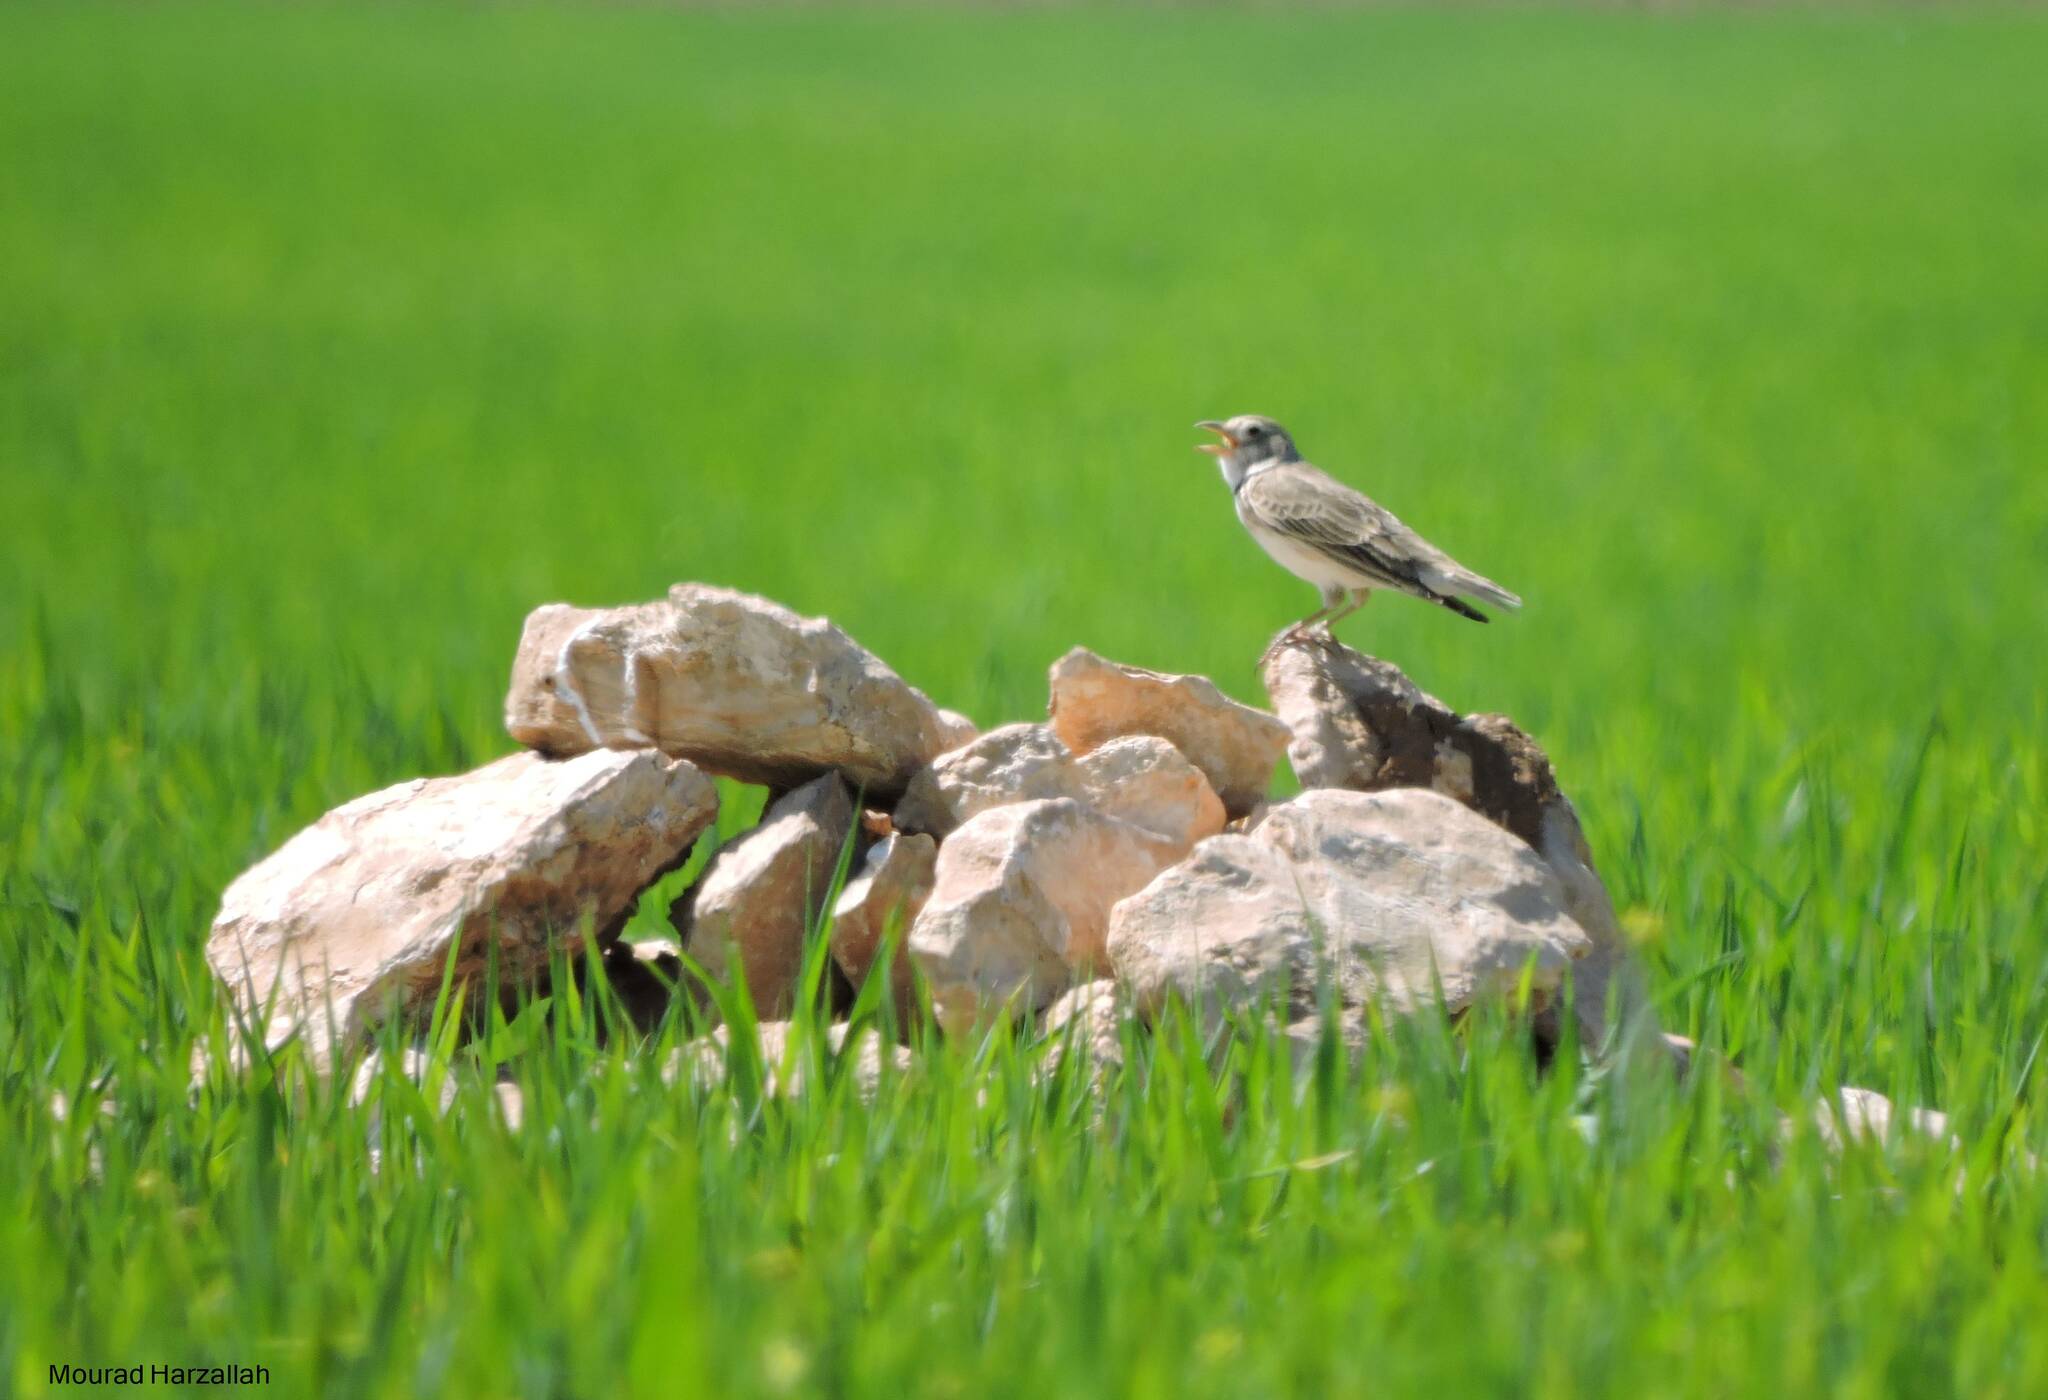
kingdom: Animalia
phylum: Chordata
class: Aves
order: Passeriformes
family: Alaudidae
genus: Melanocorypha
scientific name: Melanocorypha calandra
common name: Calandra lark
